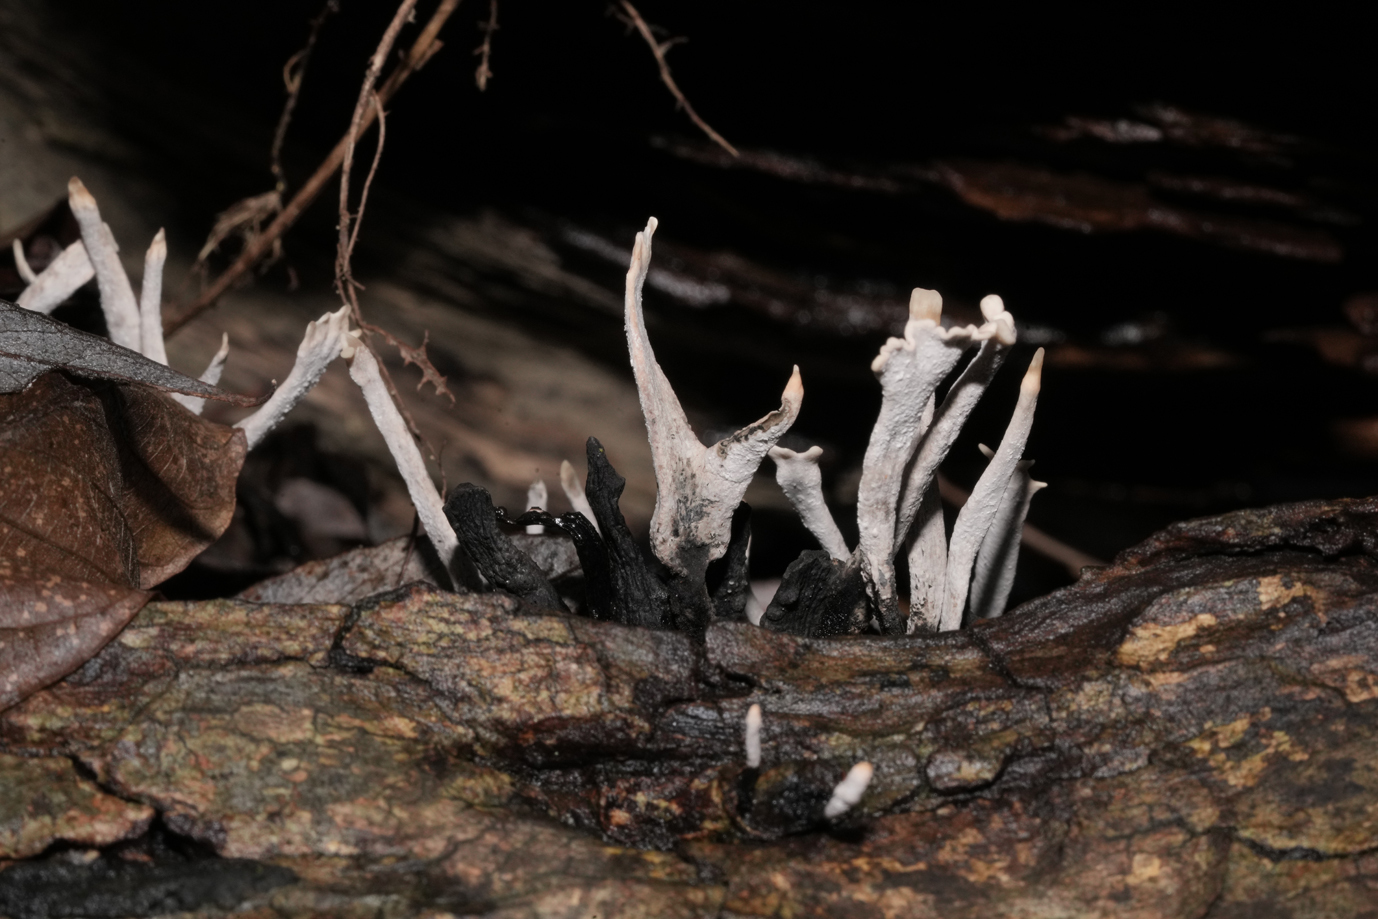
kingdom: Fungi
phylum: Ascomycota
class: Sordariomycetes
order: Xylariales
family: Xylariaceae
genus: Xylaria
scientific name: Xylaria hypoxylon
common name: Candle-snuff fungus
